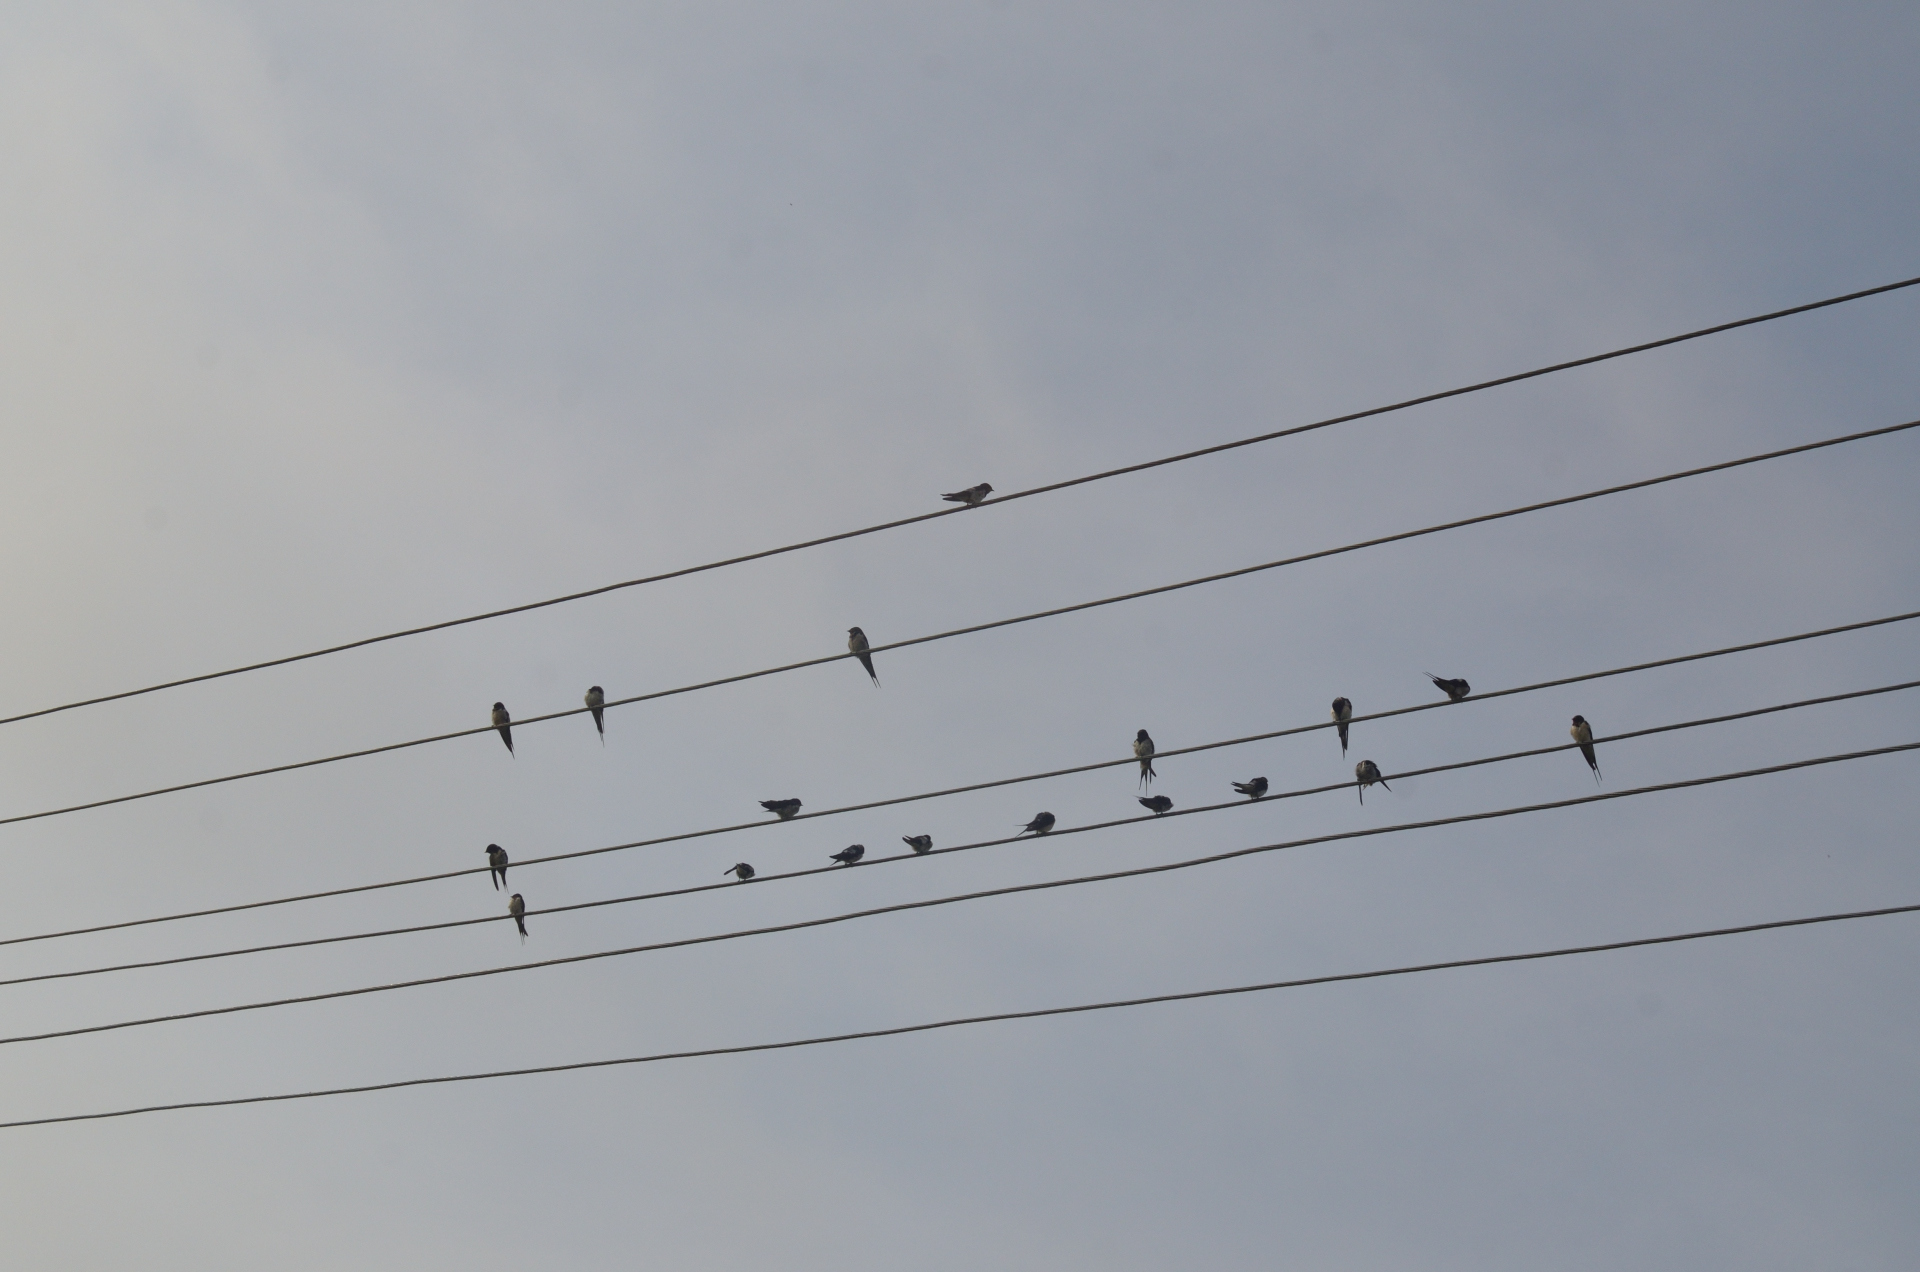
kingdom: Animalia
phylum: Chordata
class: Aves
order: Passeriformes
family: Hirundinidae
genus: Hirundo
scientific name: Hirundo rustica
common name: Barn swallow
